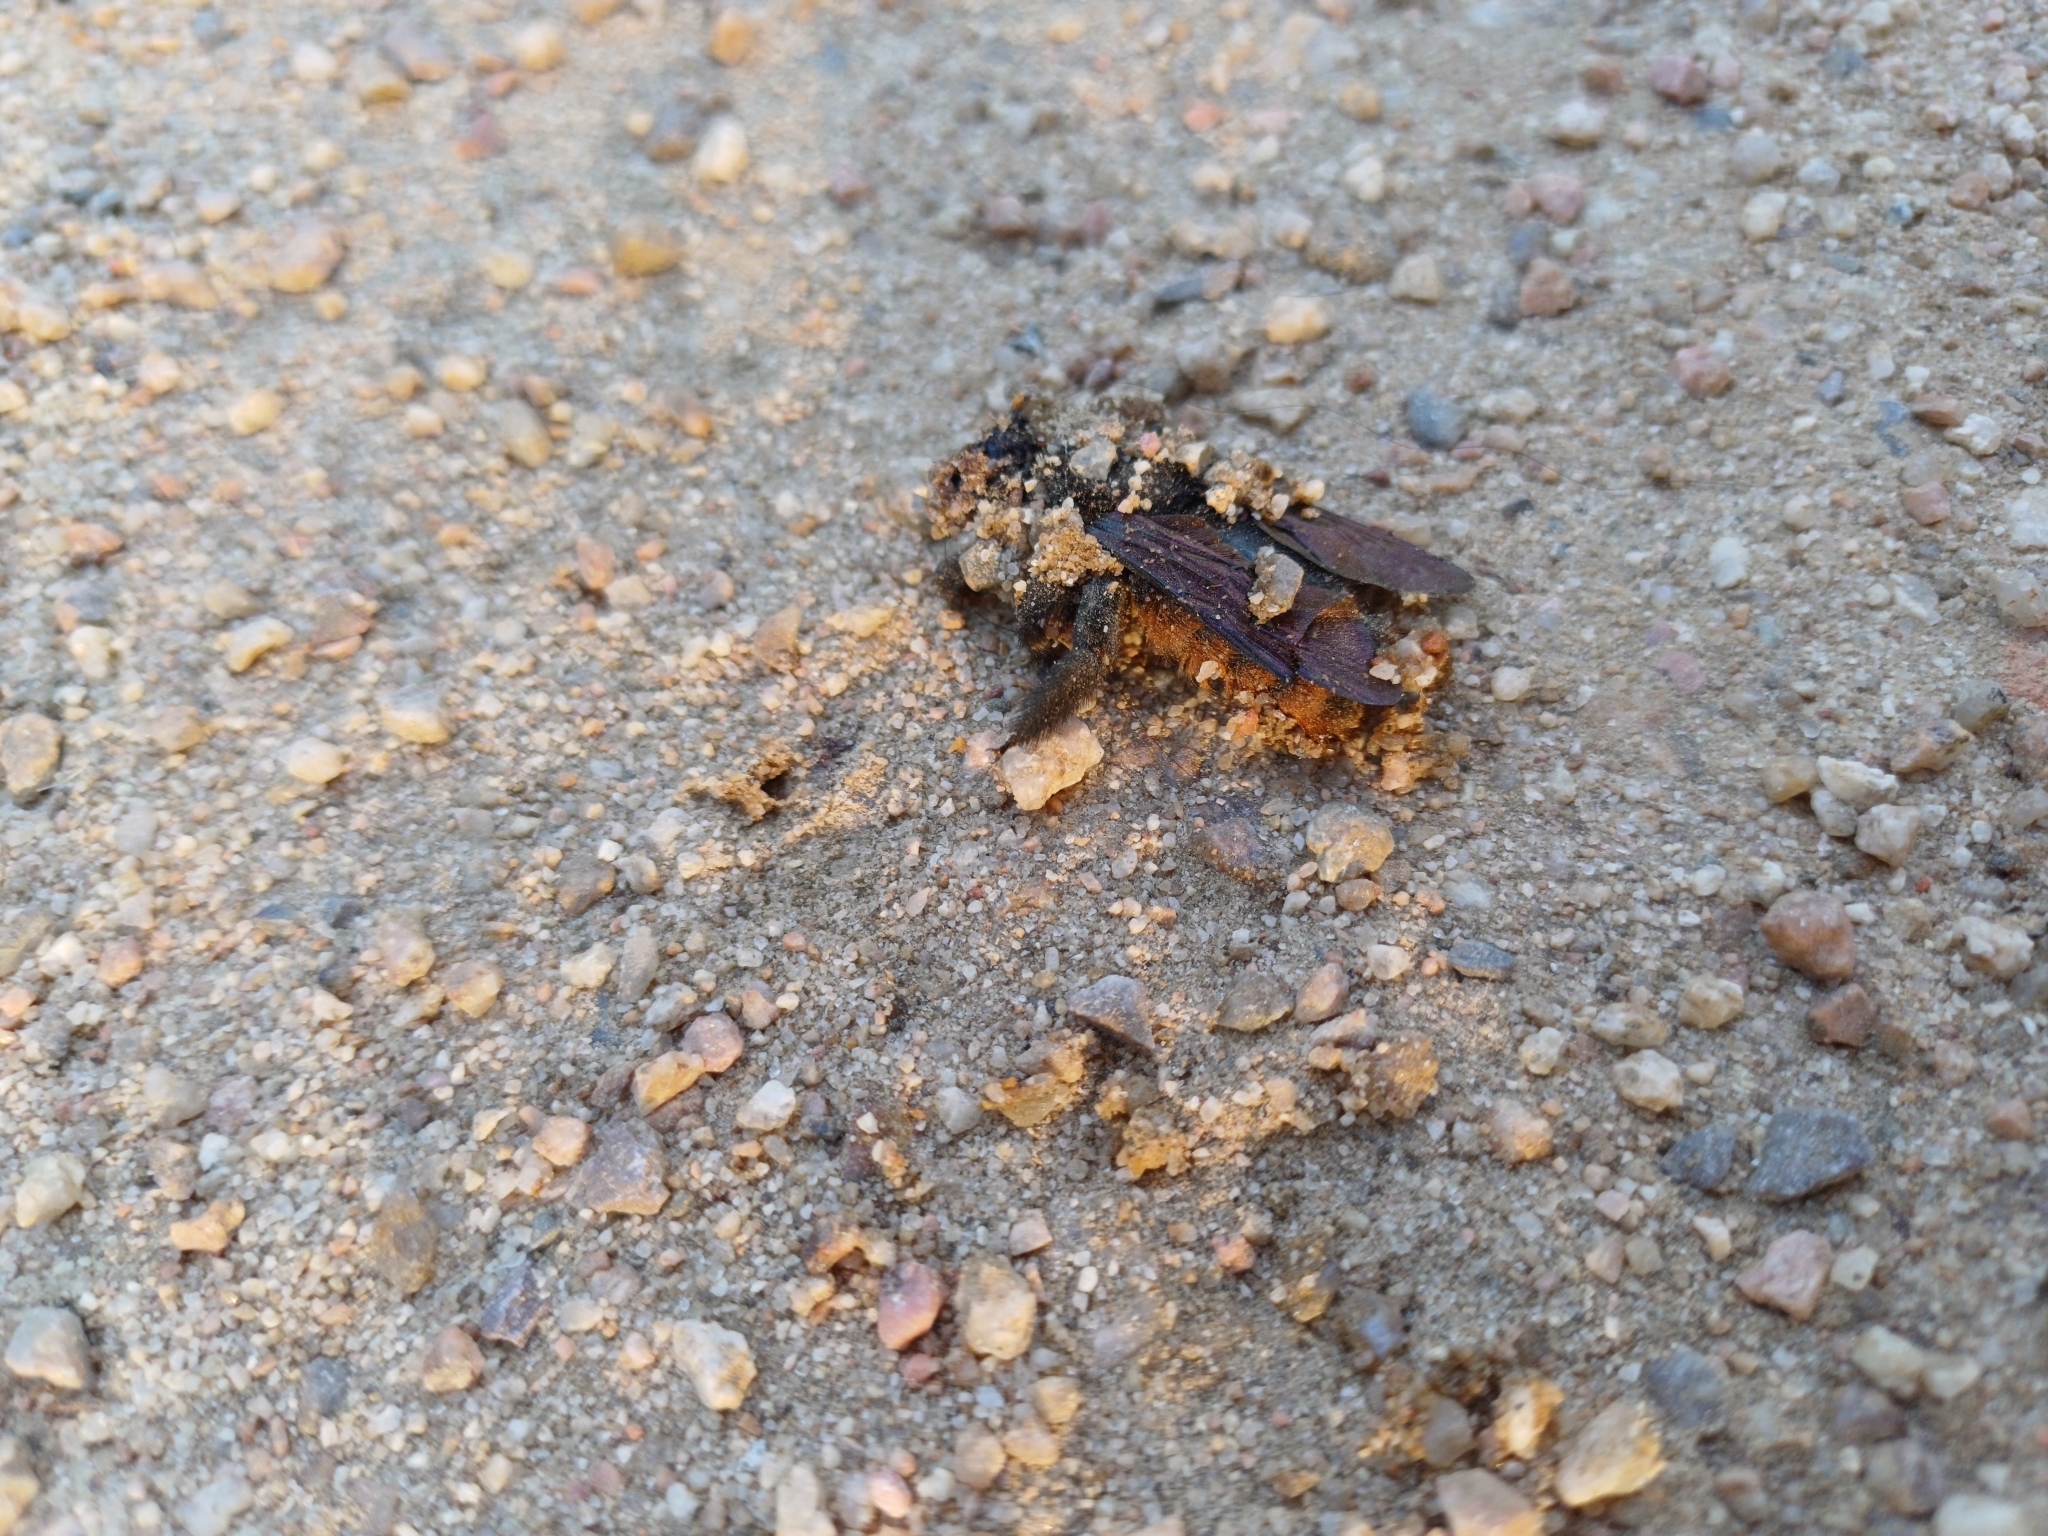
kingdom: Animalia
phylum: Arthropoda
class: Insecta
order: Hymenoptera
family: Apidae
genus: Xylocopa
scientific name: Xylocopa augusti
